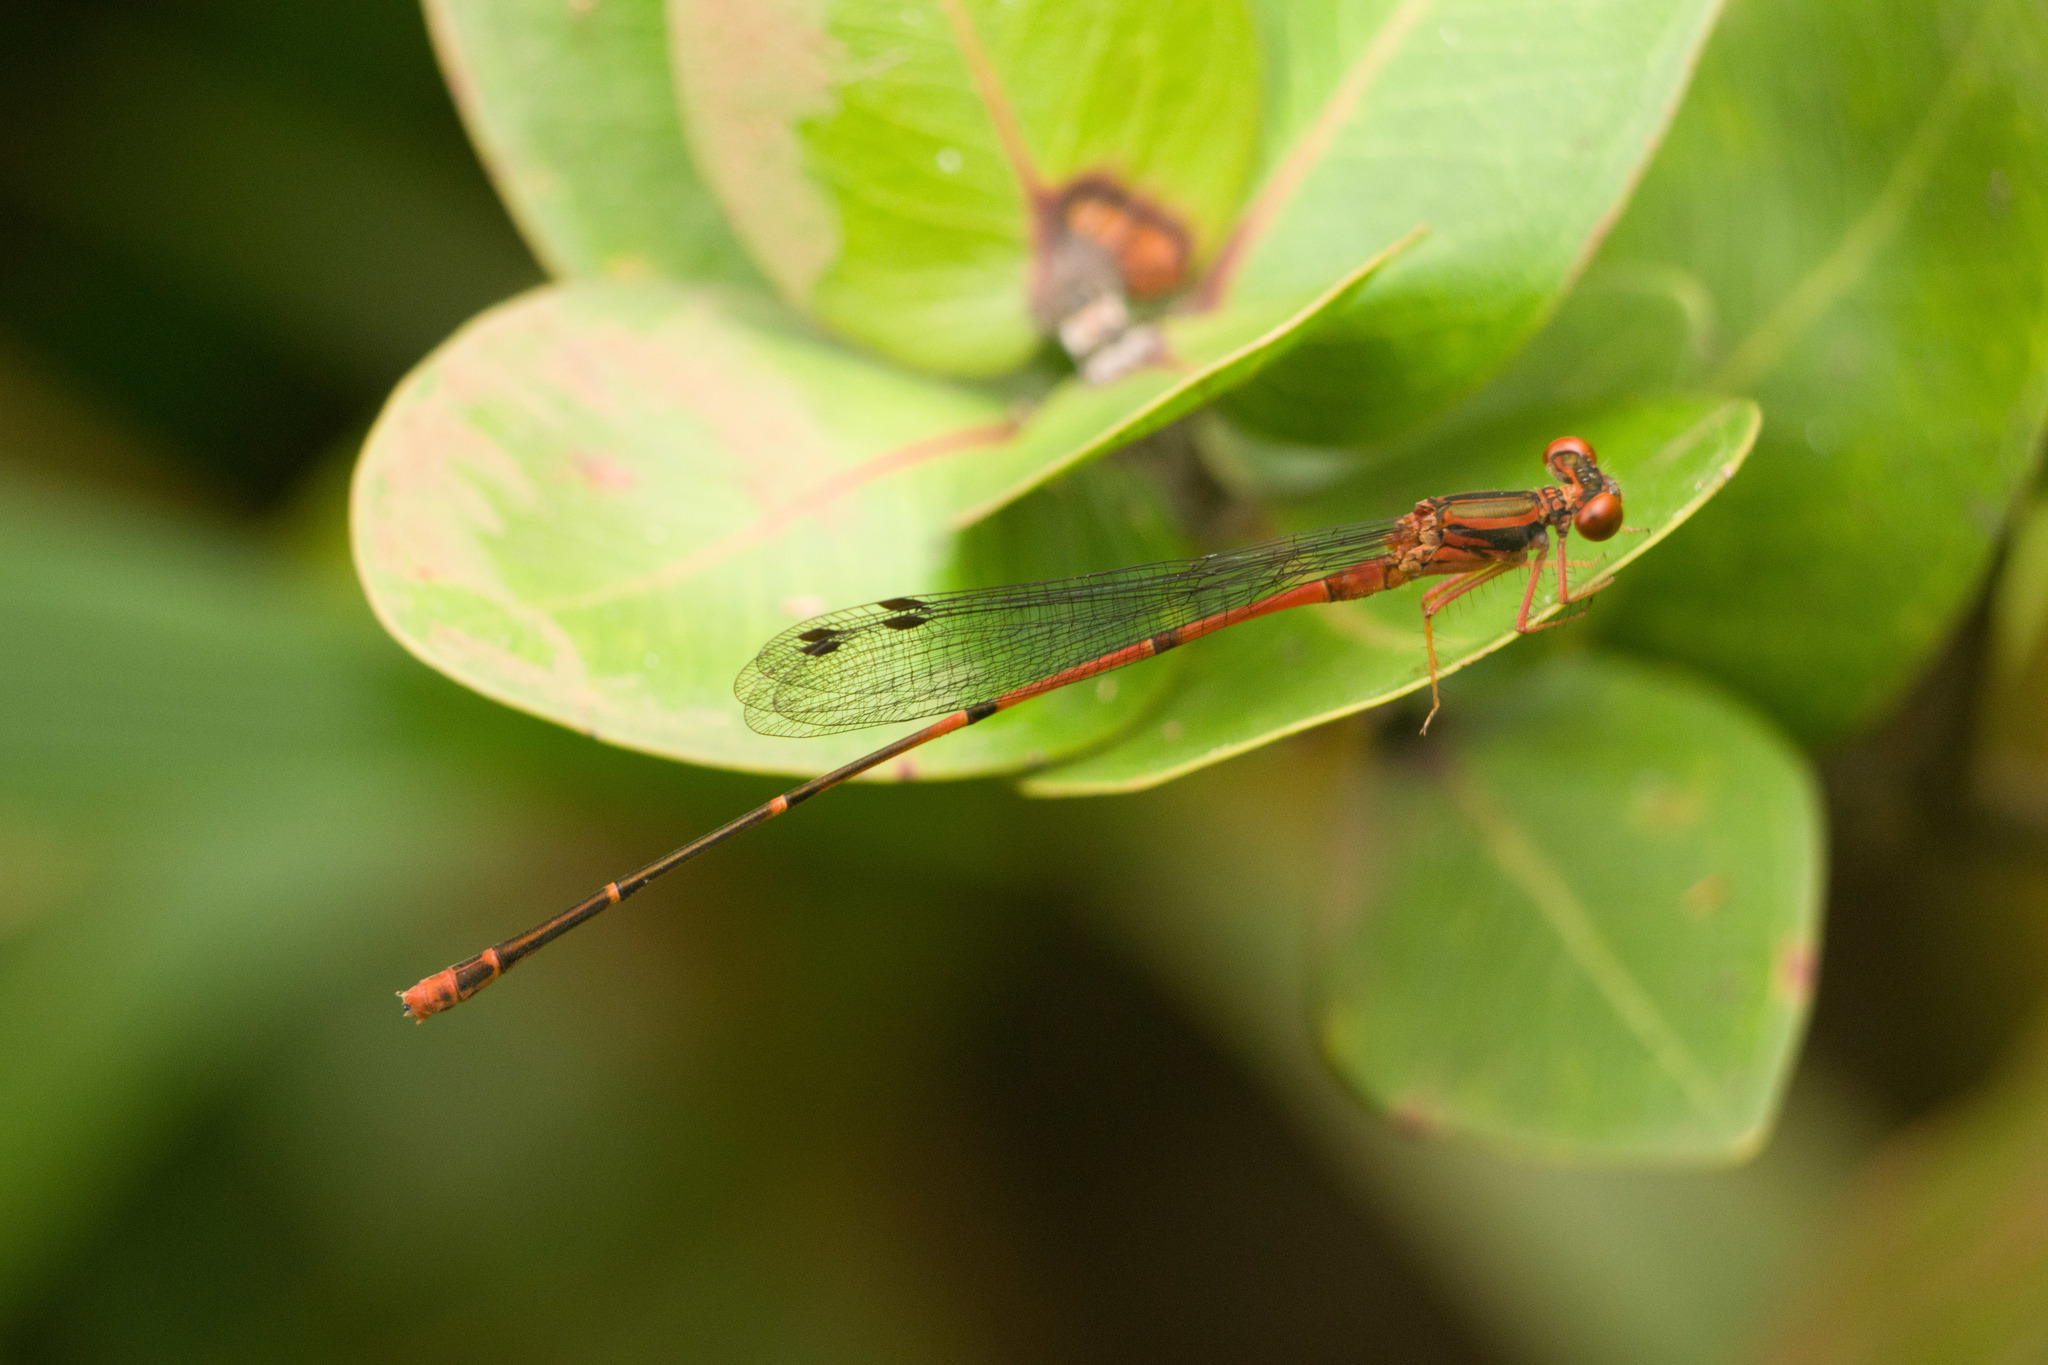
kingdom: Animalia
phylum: Arthropoda
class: Insecta
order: Odonata
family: Coenagrionidae
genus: Megalagrion
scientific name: Megalagrion hawaiiense
